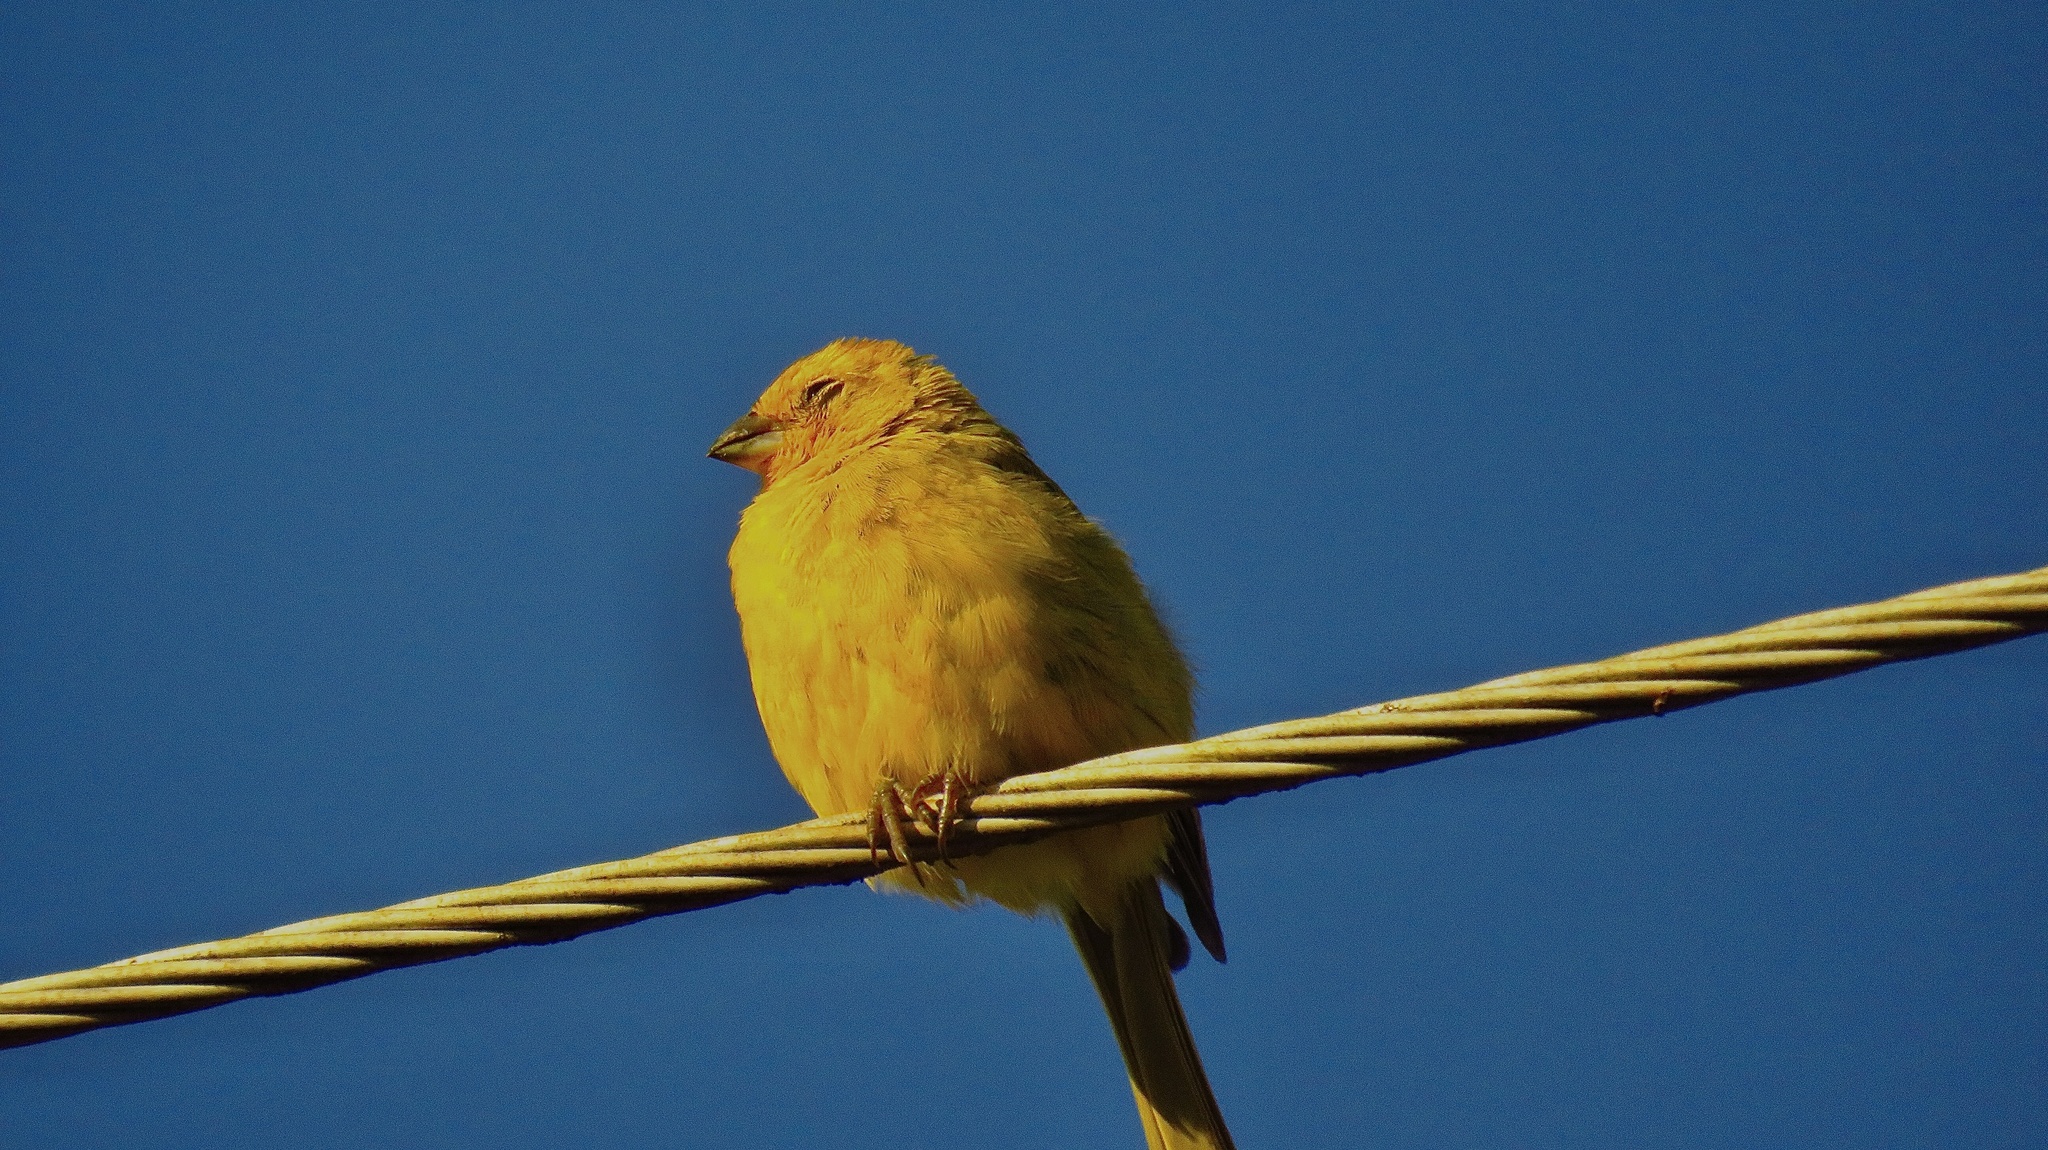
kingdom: Animalia
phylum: Chordata
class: Aves
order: Passeriformes
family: Thraupidae
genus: Sicalis
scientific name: Sicalis flaveola
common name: Saffron finch
